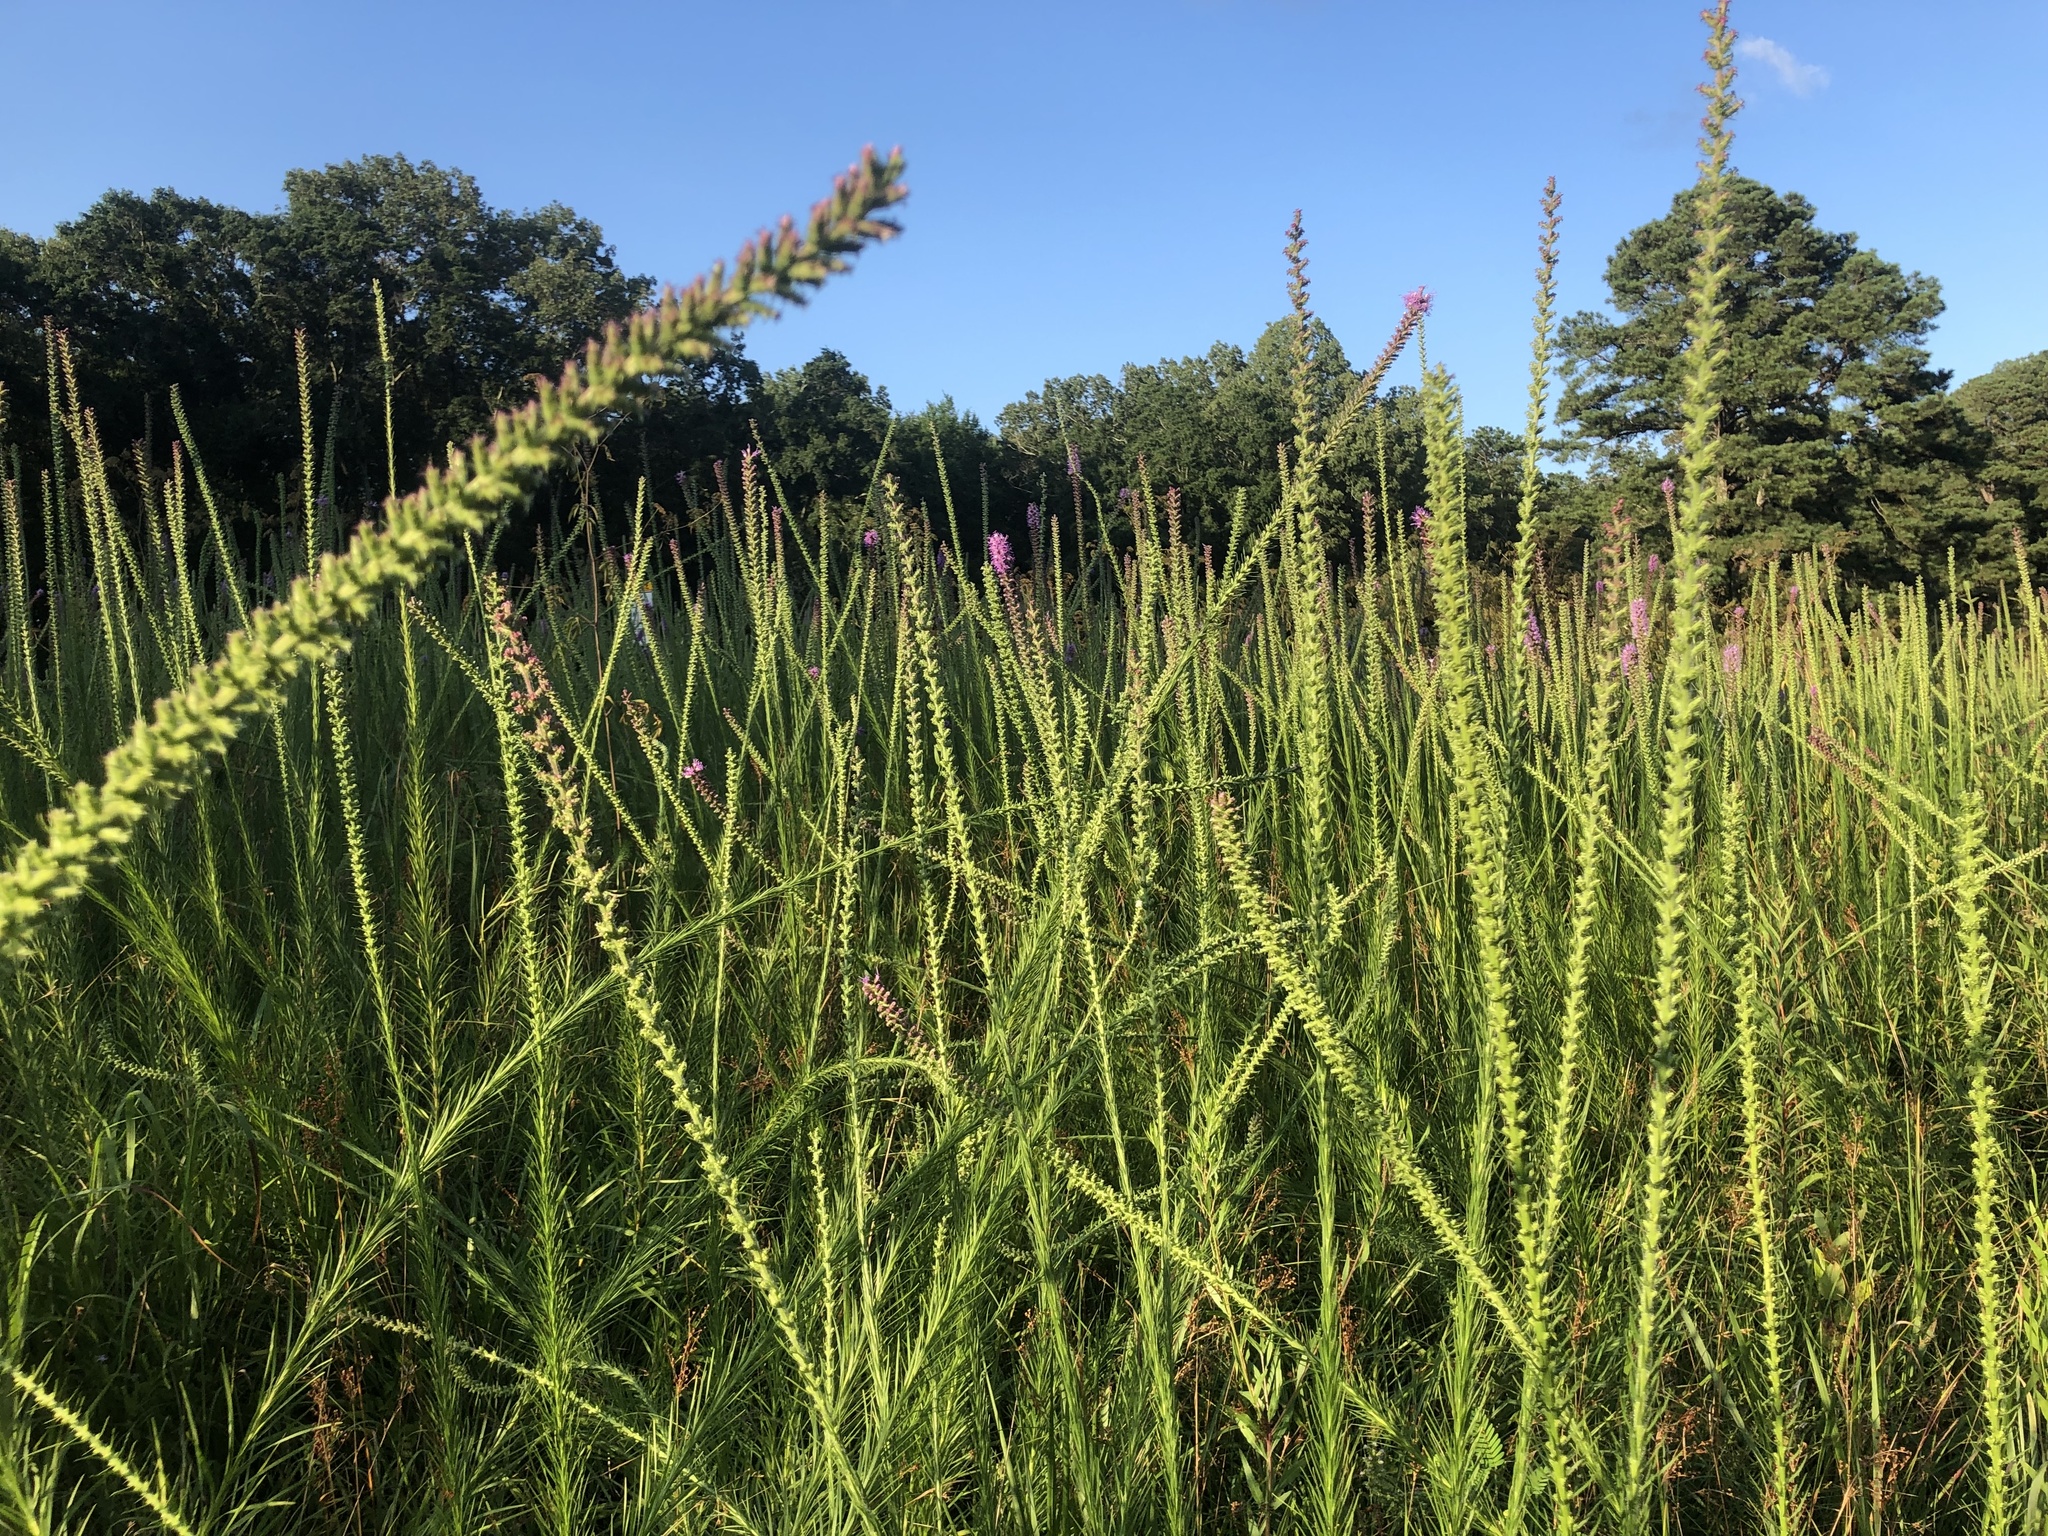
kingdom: Plantae
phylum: Tracheophyta
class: Magnoliopsida
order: Asterales
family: Asteraceae
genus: Liatris
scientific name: Liatris pycnostachya
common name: Cattail gayfeather
